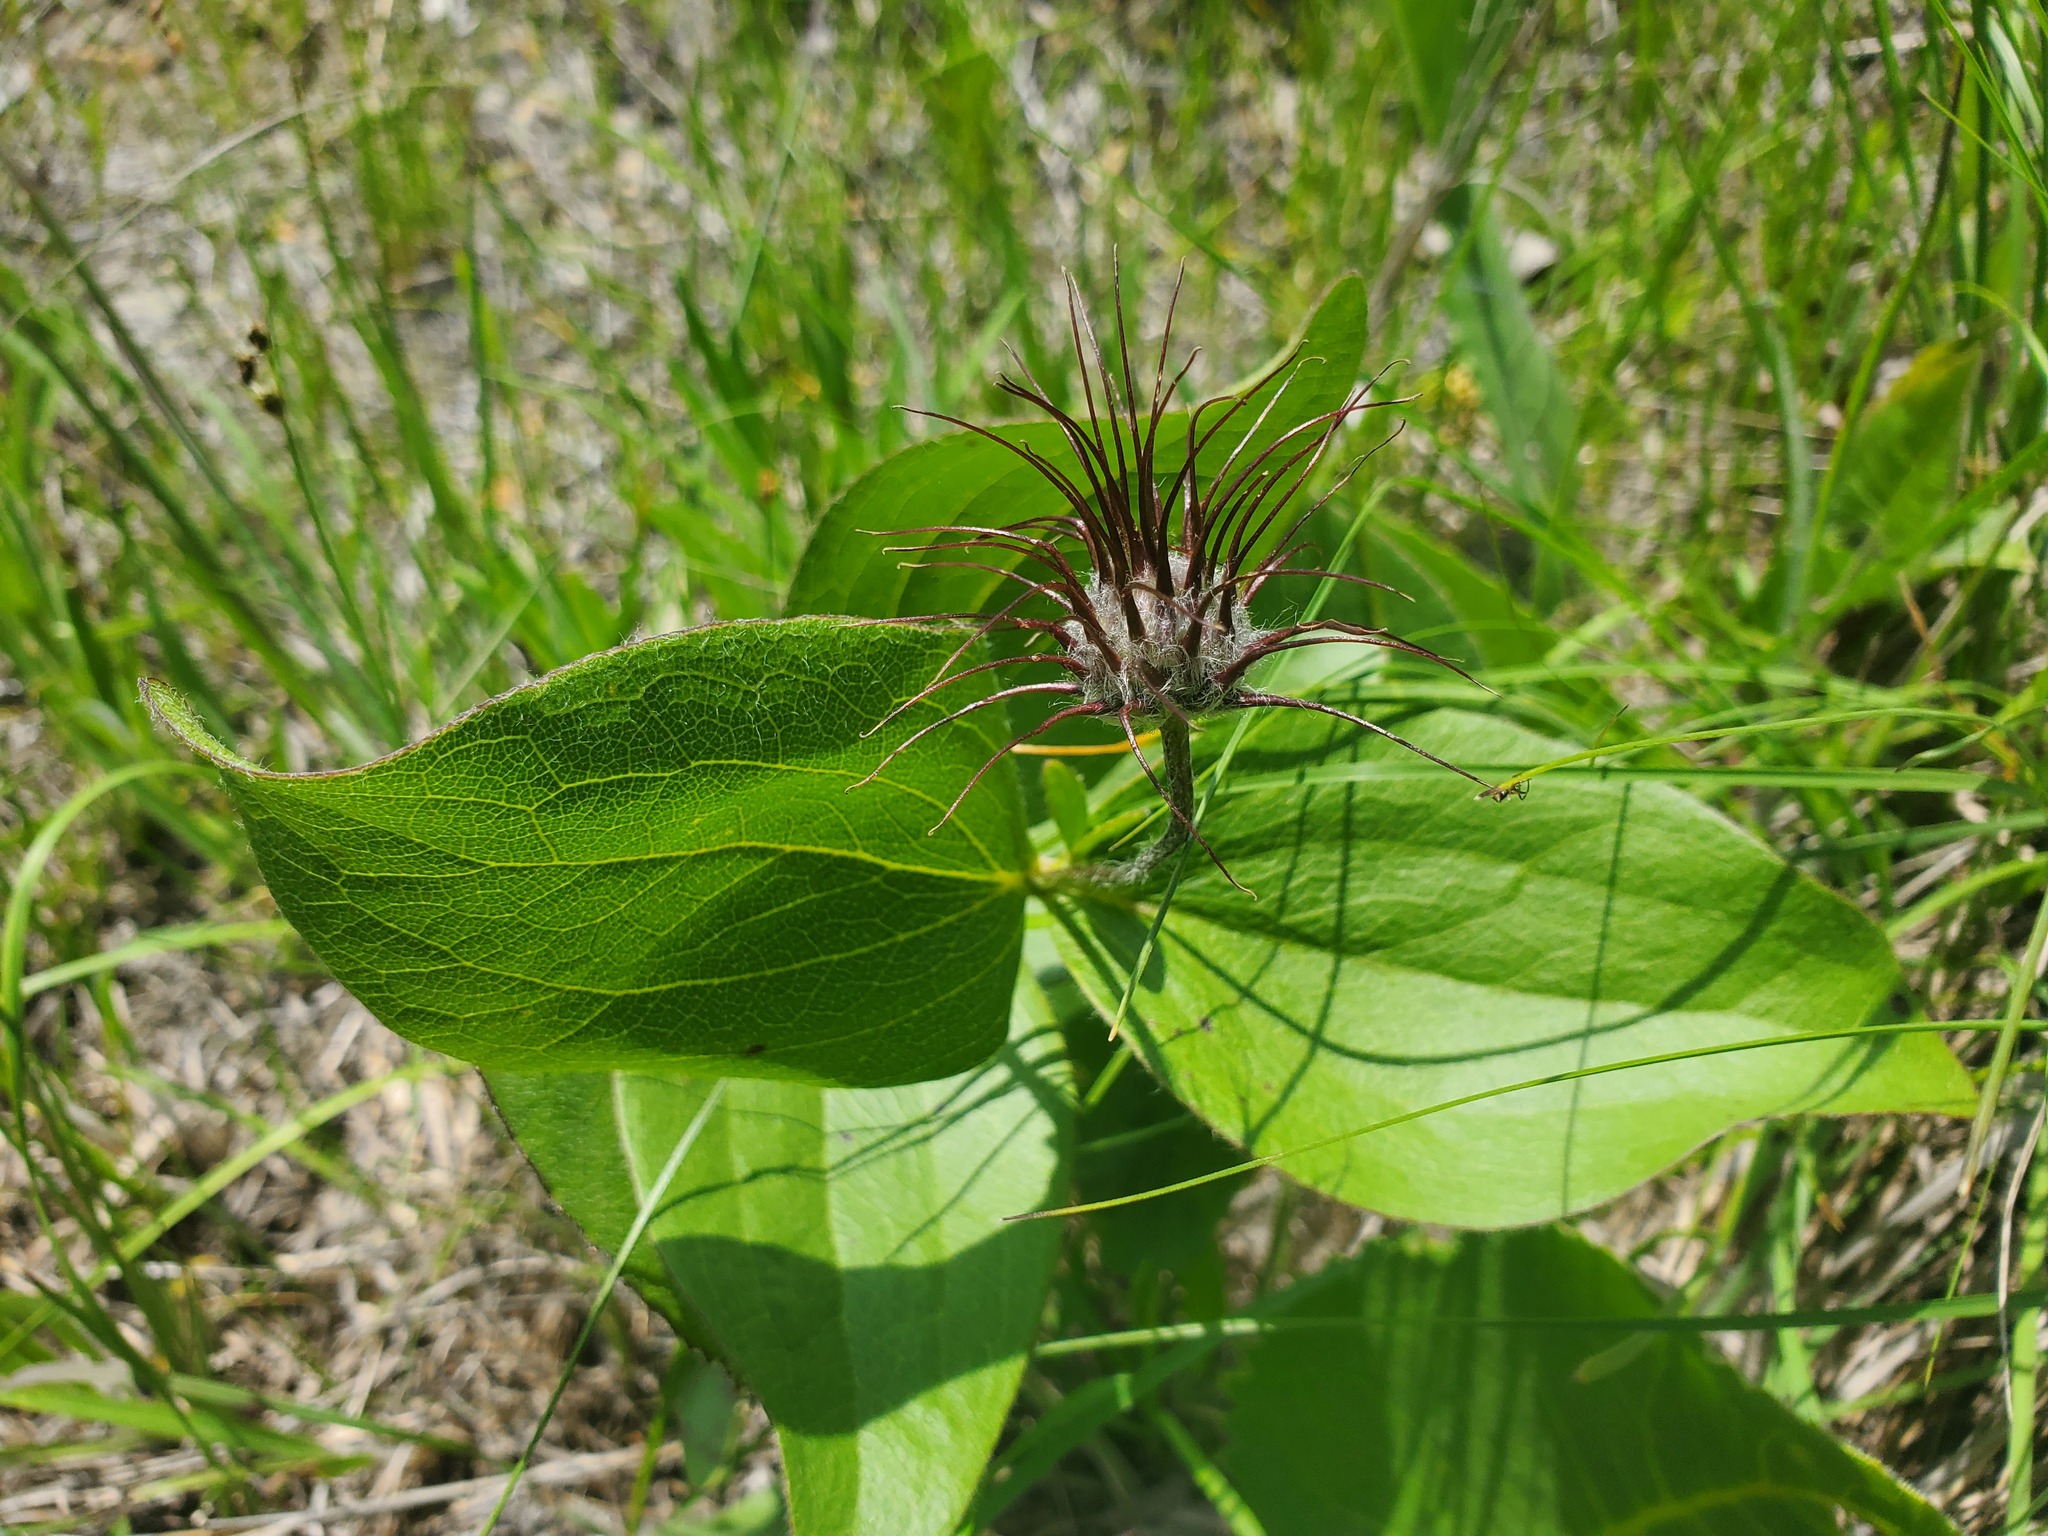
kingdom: Plantae
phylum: Tracheophyta
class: Magnoliopsida
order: Ranunculales
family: Ranunculaceae
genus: Clematis
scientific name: Clematis fremontii
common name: Fremont's clematis
